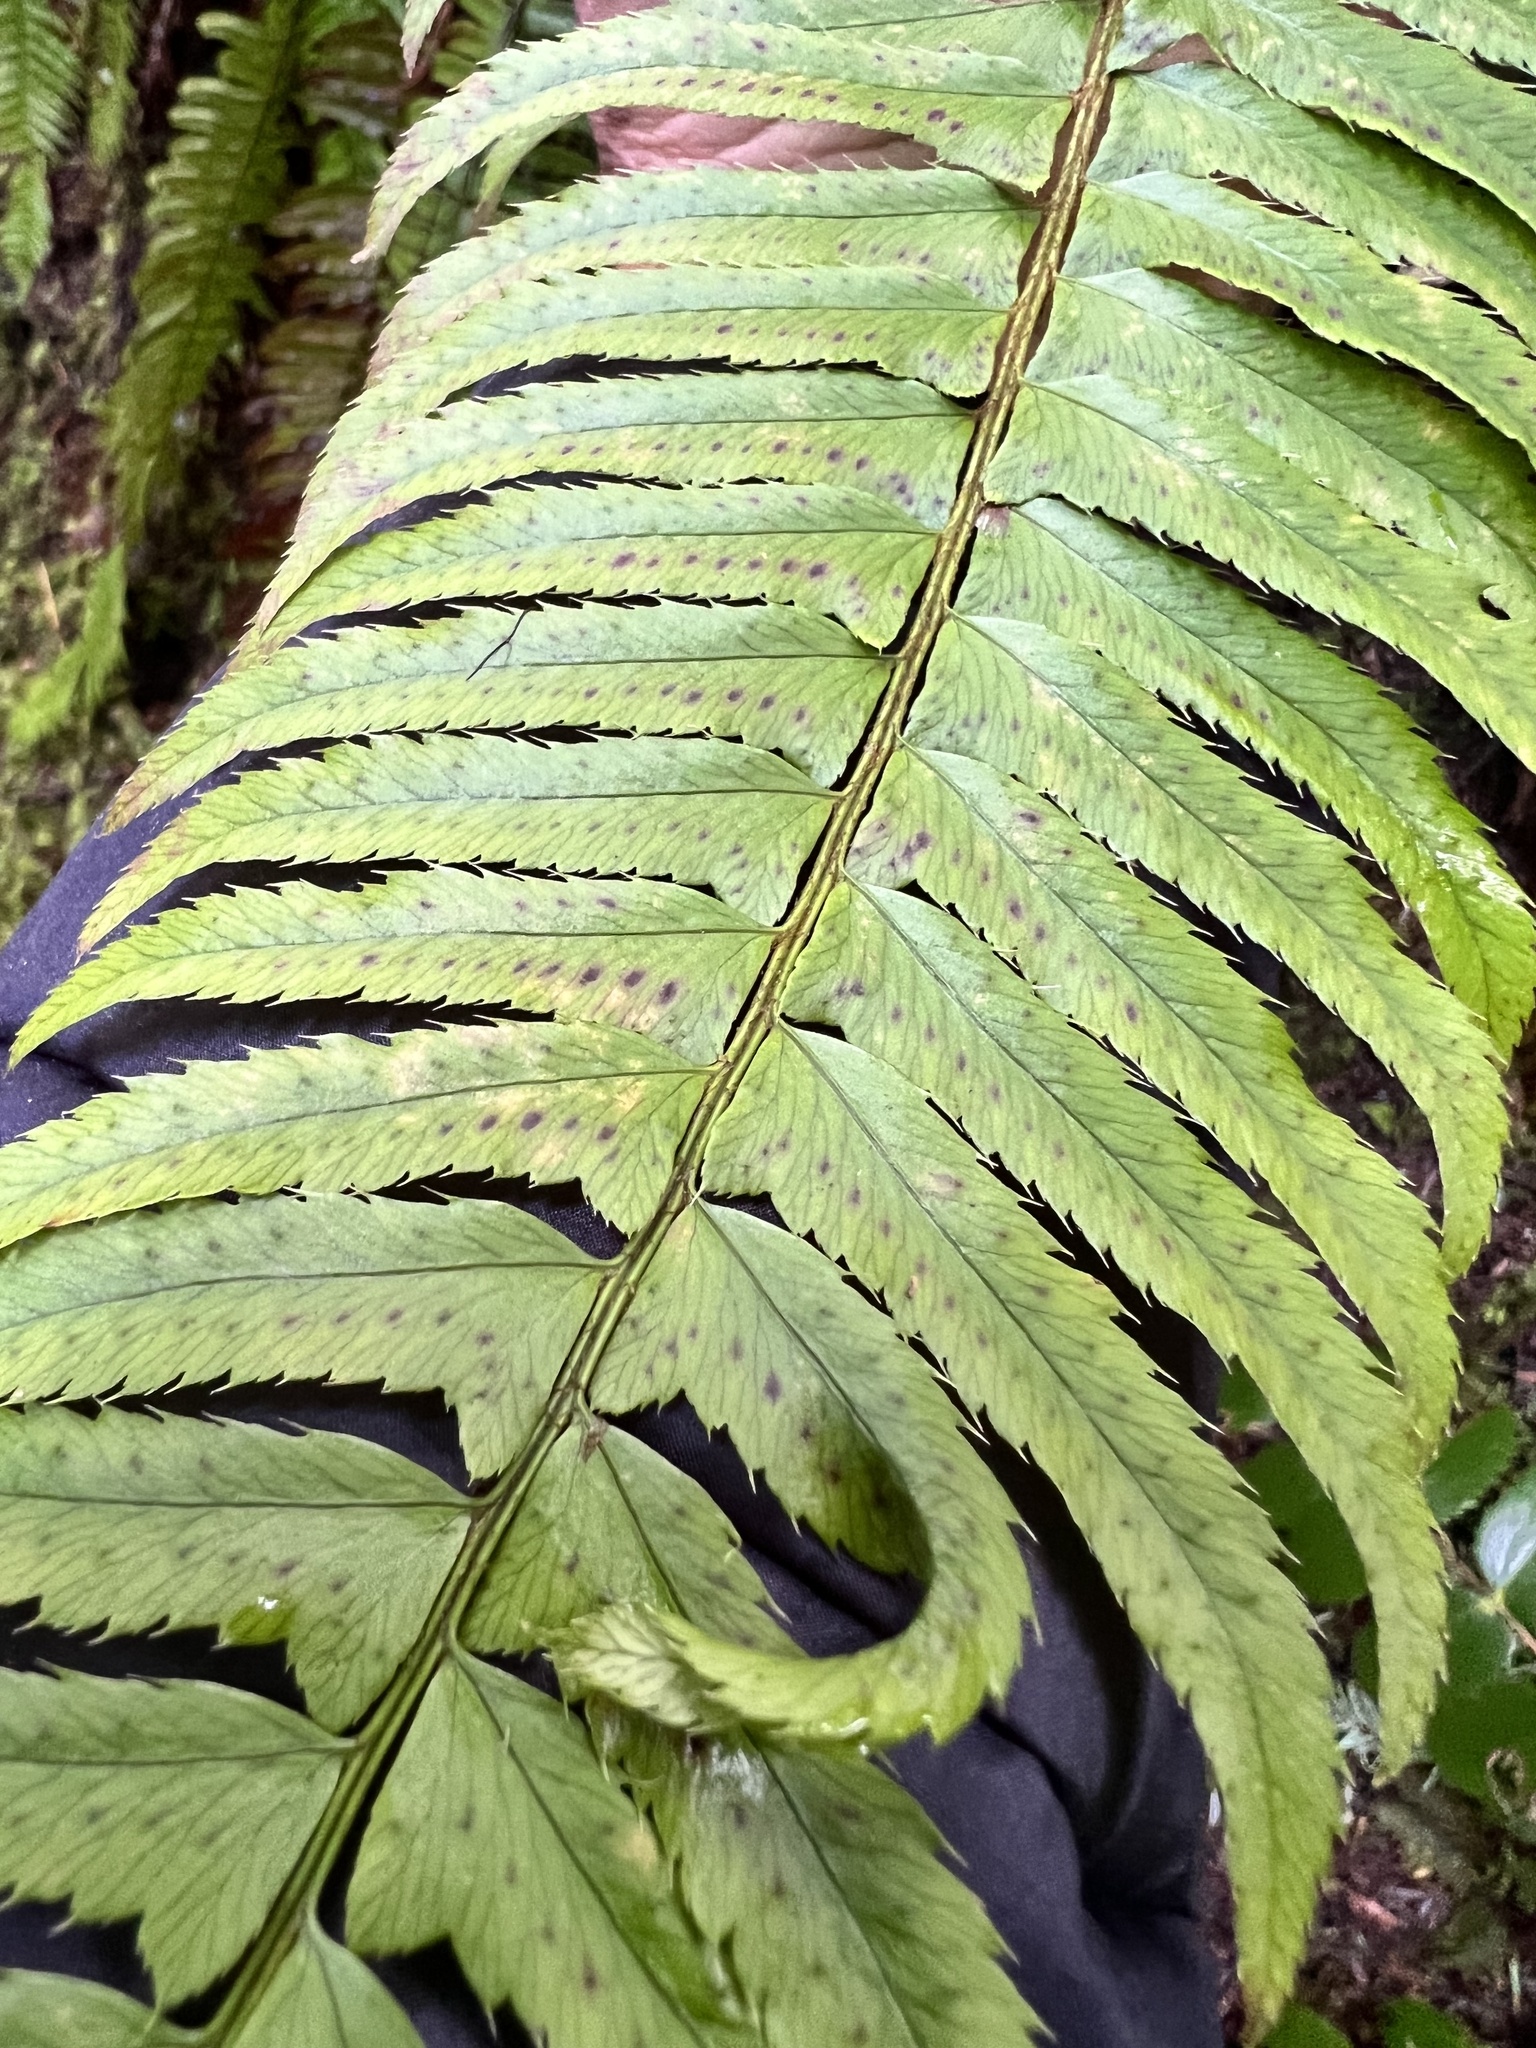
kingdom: Plantae
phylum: Tracheophyta
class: Polypodiopsida
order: Polypodiales
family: Dryopteridaceae
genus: Polystichum
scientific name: Polystichum munitum
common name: Western sword-fern
